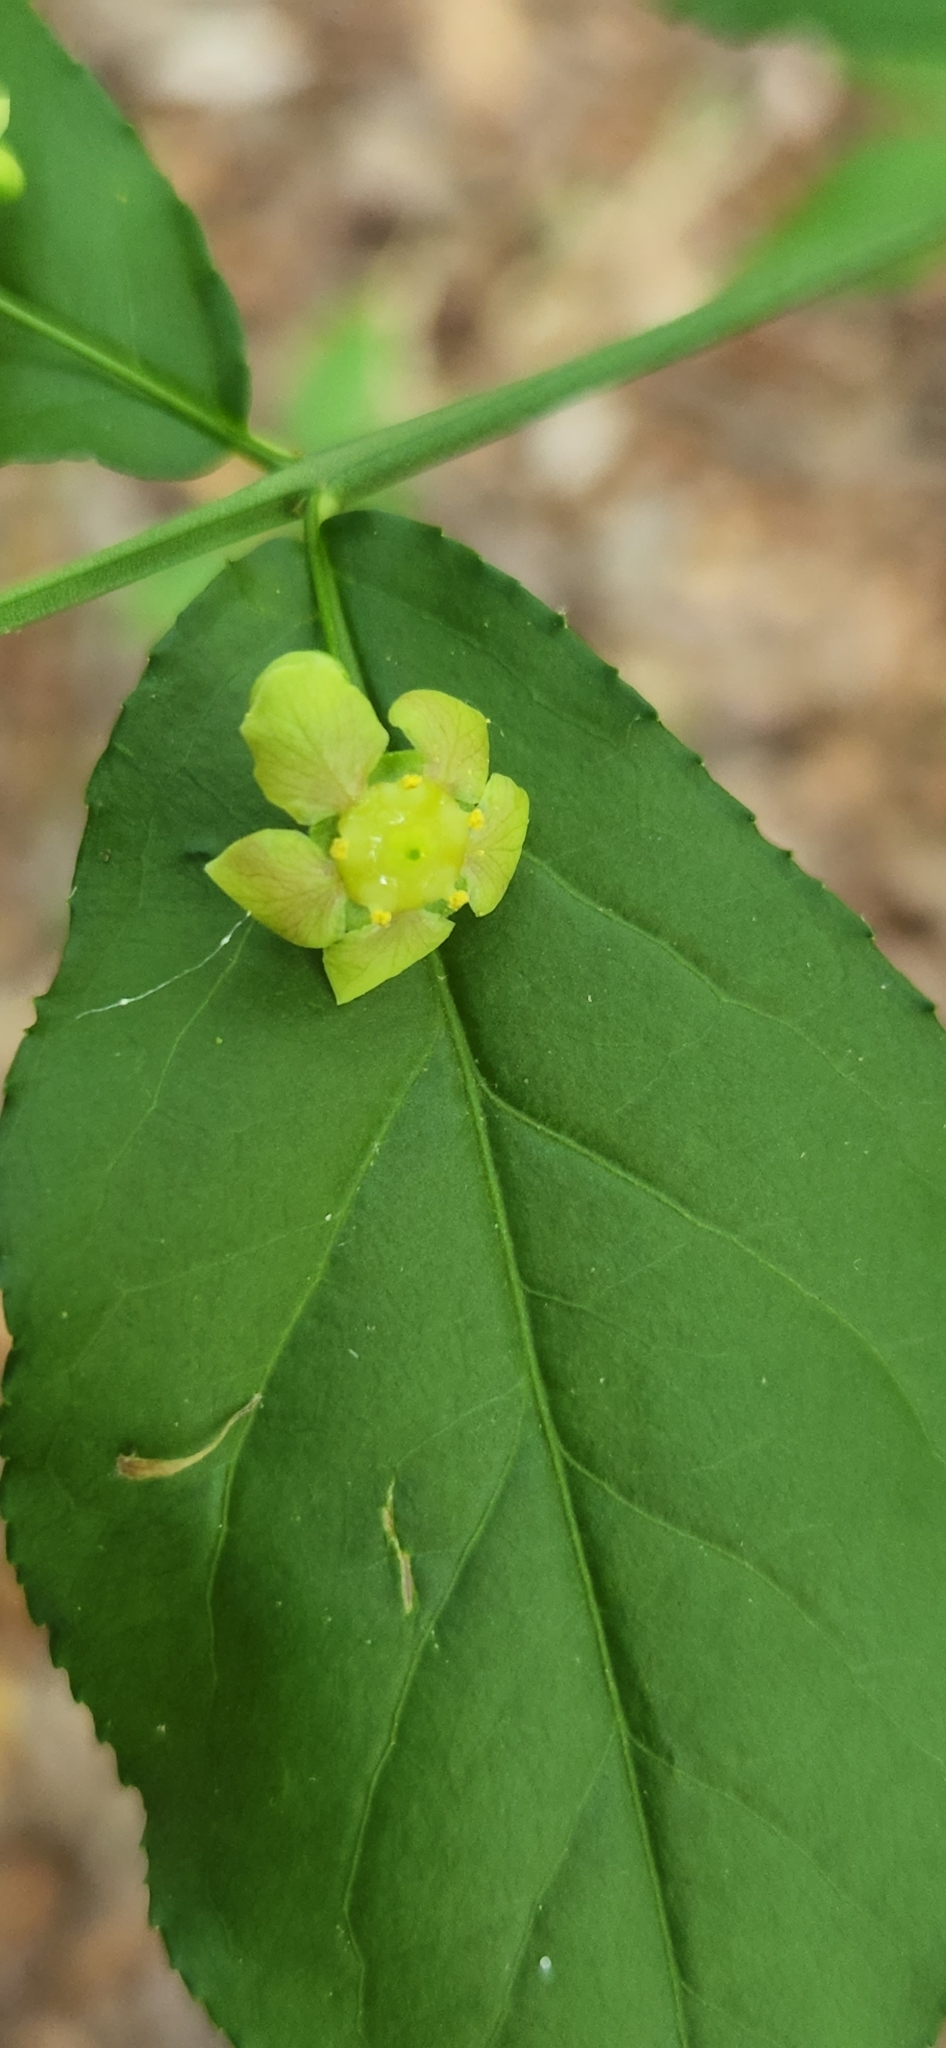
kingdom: Plantae
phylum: Tracheophyta
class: Magnoliopsida
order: Celastrales
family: Celastraceae
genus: Euonymus
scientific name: Euonymus americanus
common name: Bursting-heart
